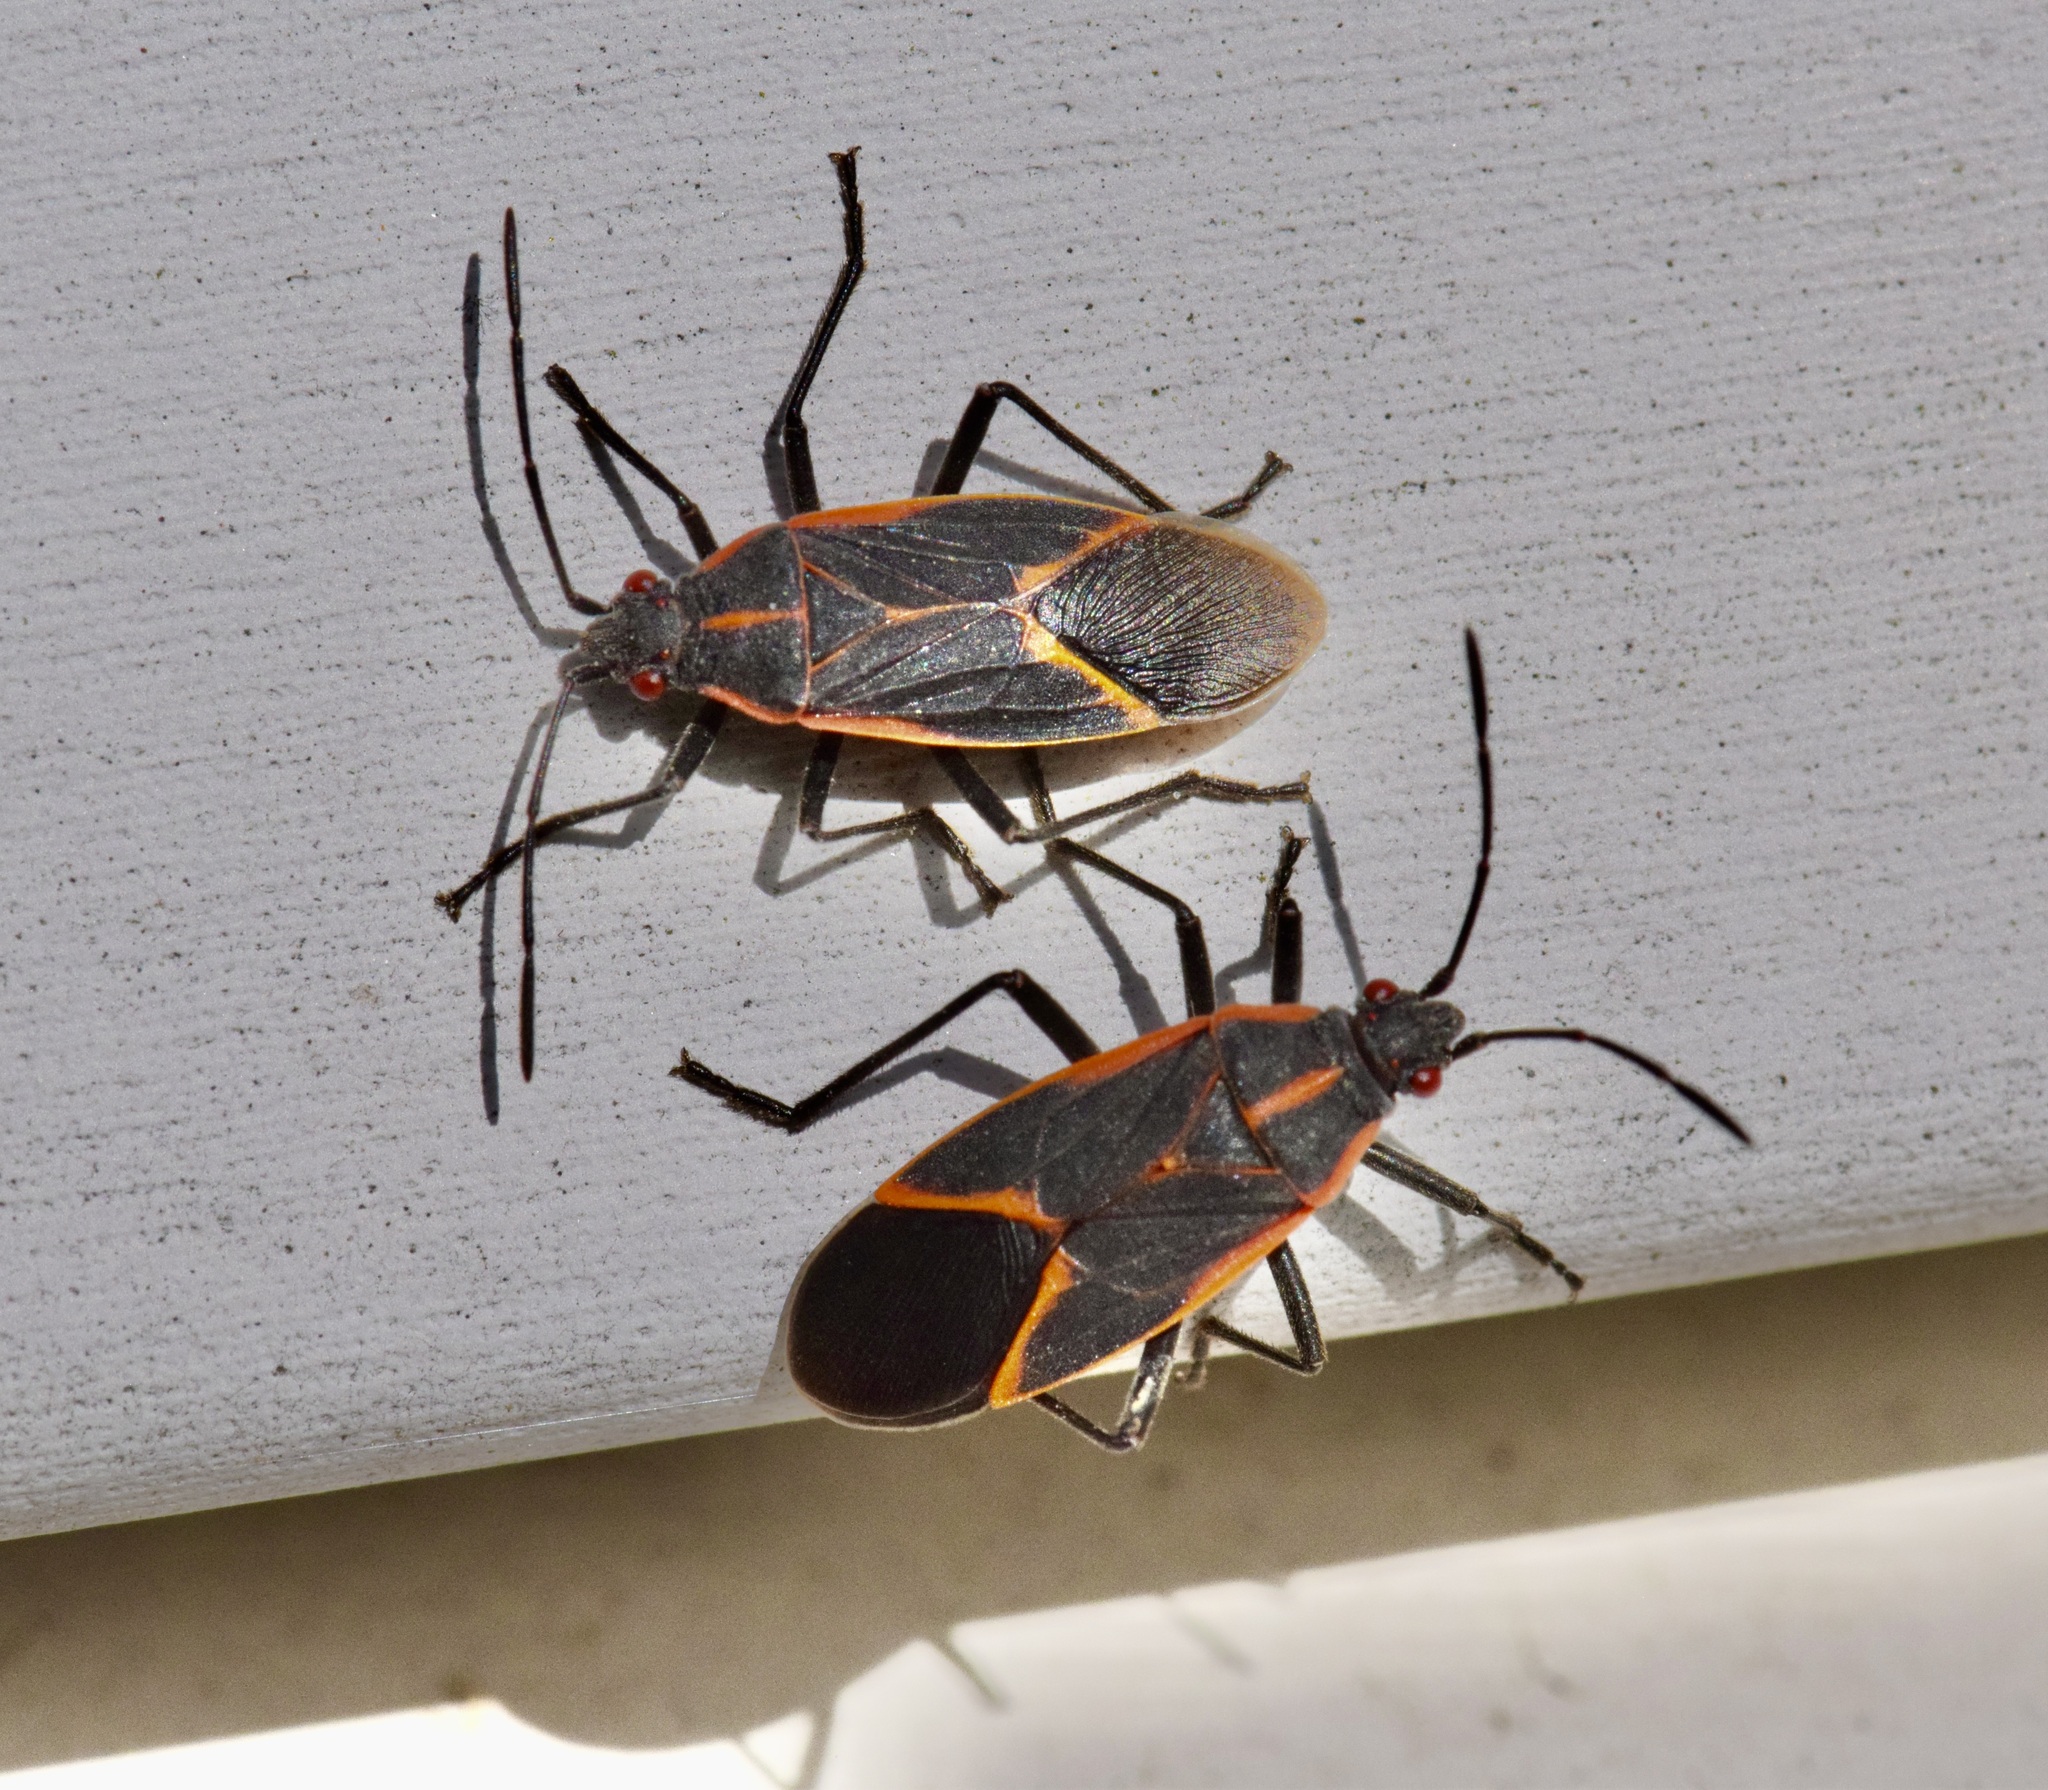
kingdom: Animalia
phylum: Arthropoda
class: Insecta
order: Hemiptera
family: Rhopalidae
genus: Boisea
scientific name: Boisea trivittata
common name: Boxelder bug
